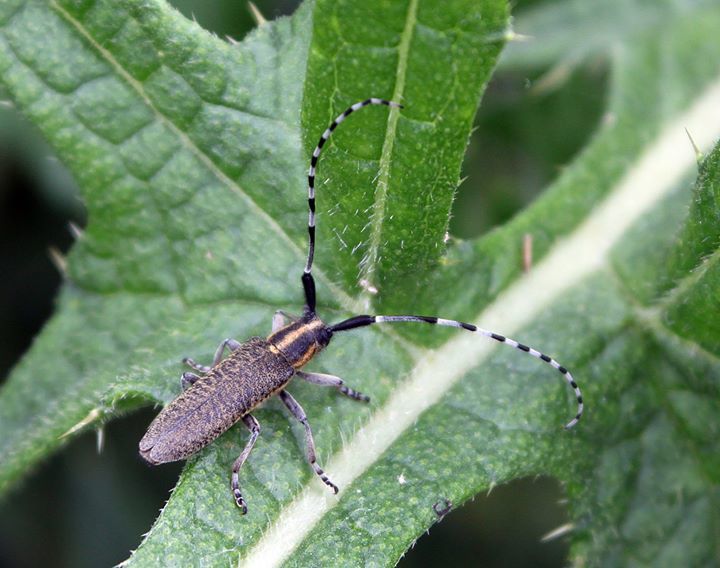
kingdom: Animalia
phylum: Arthropoda
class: Insecta
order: Coleoptera
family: Cerambycidae
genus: Agapanthia
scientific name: Agapanthia villosoviridescens
